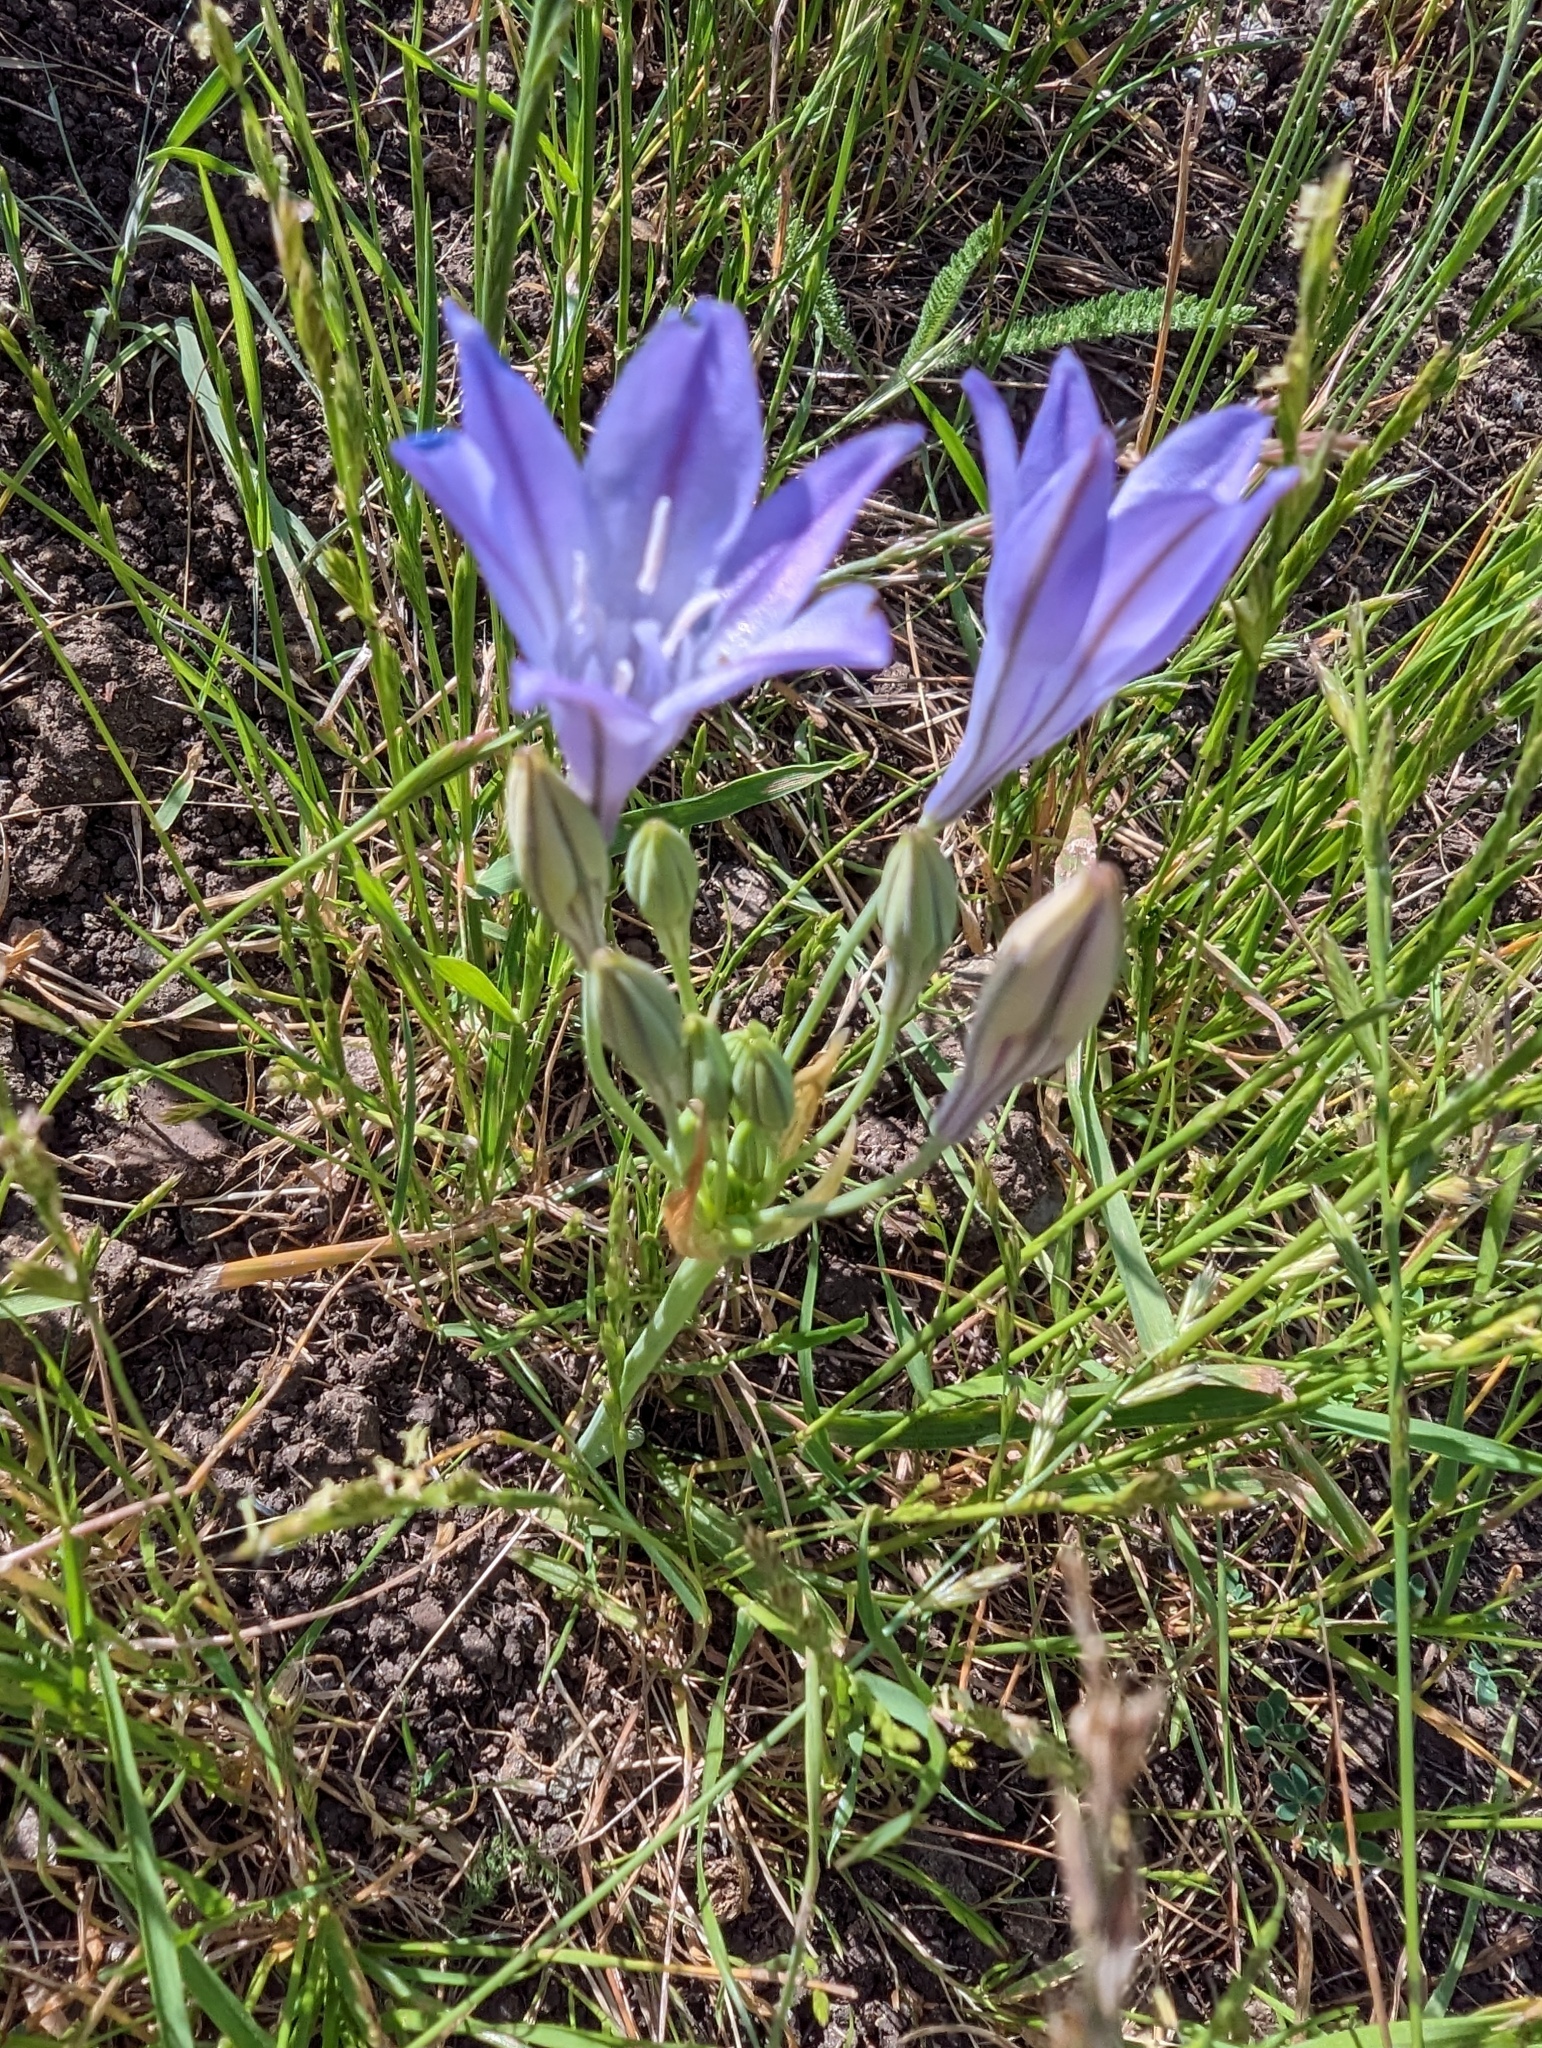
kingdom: Plantae
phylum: Tracheophyta
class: Liliopsida
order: Asparagales
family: Asparagaceae
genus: Triteleia
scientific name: Triteleia laxa
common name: Triplet-lily
